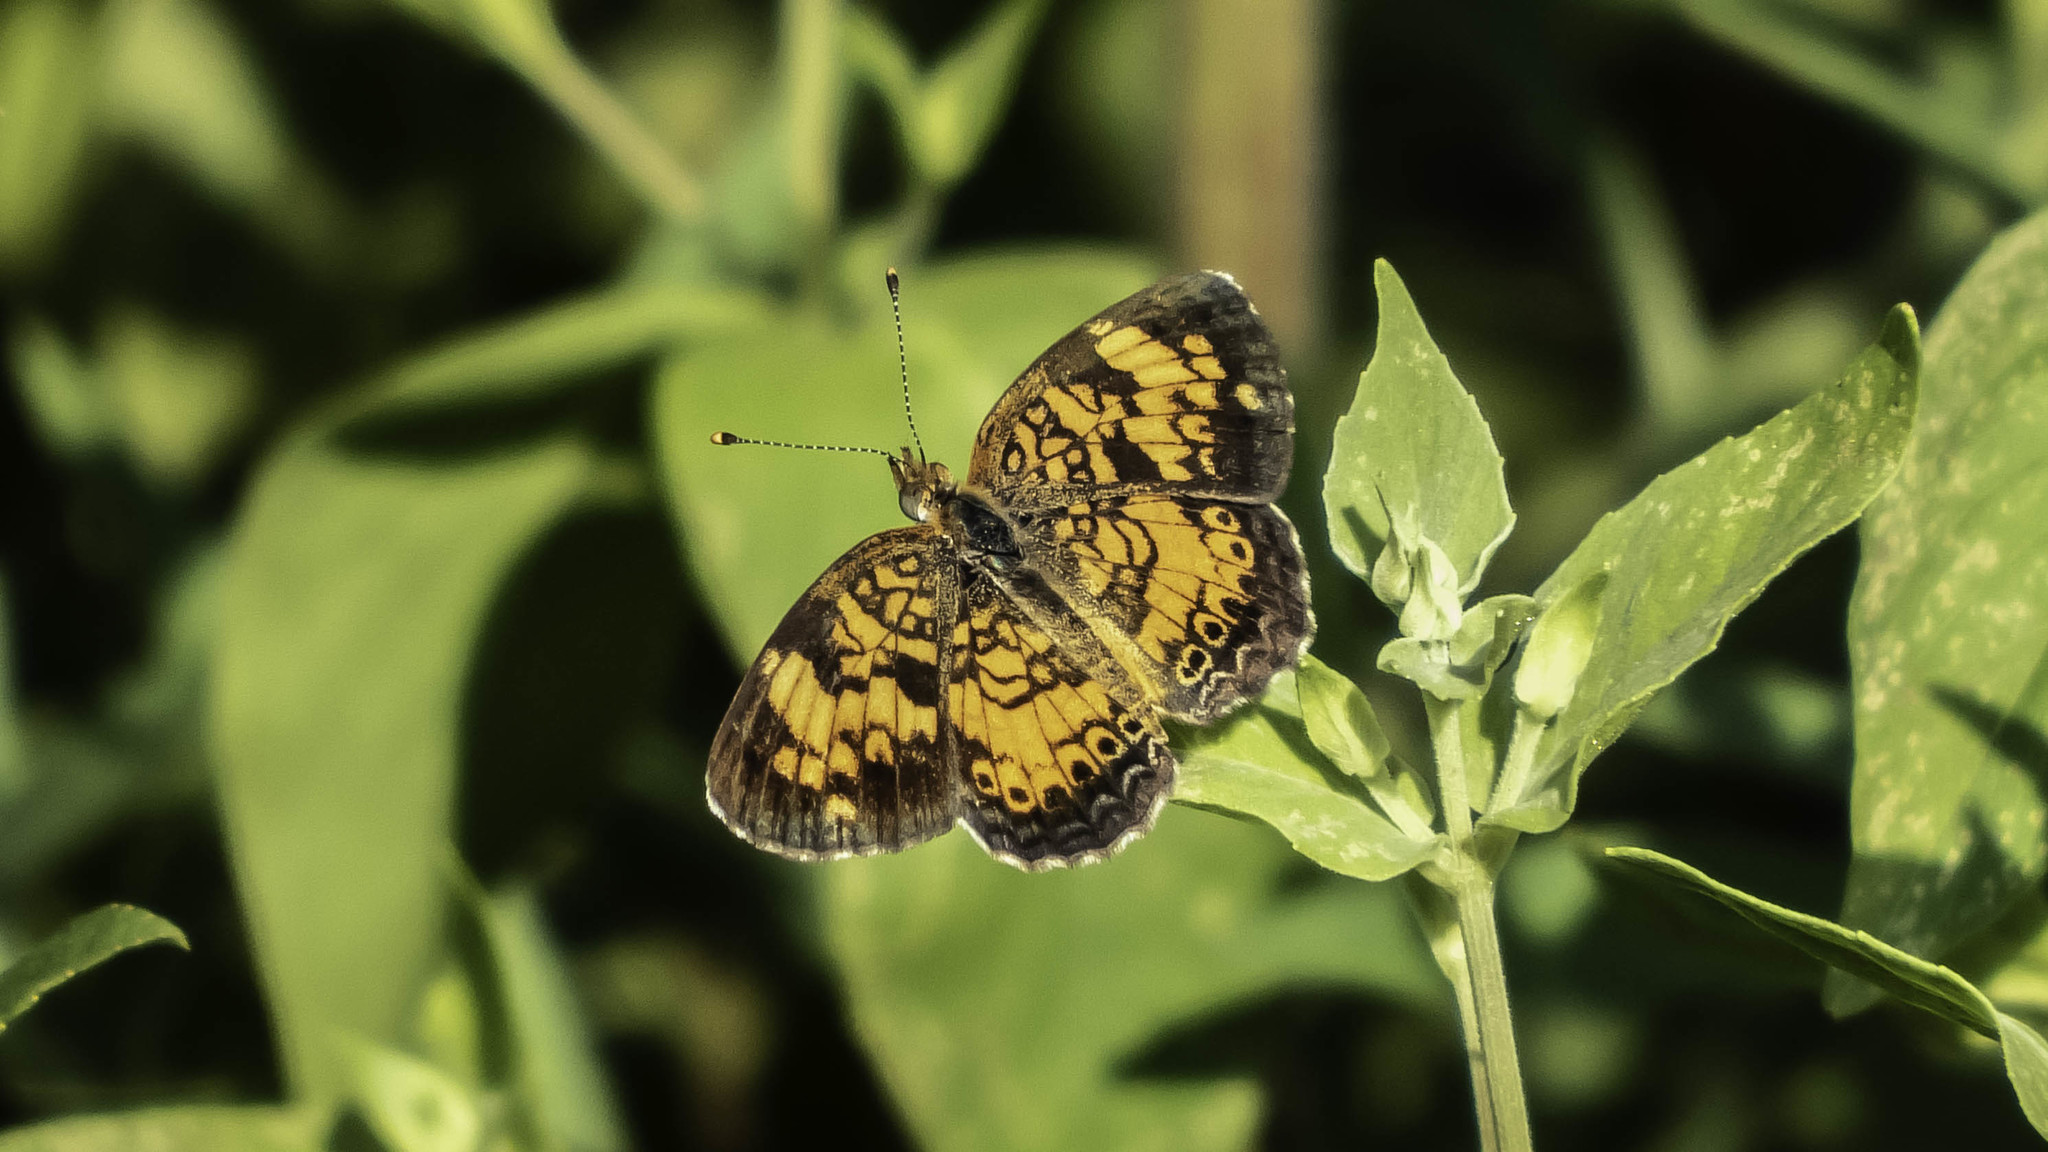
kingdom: Animalia
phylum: Arthropoda
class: Insecta
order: Lepidoptera
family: Nymphalidae
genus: Phyciodes
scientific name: Phyciodes tharos
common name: Pearl crescent
